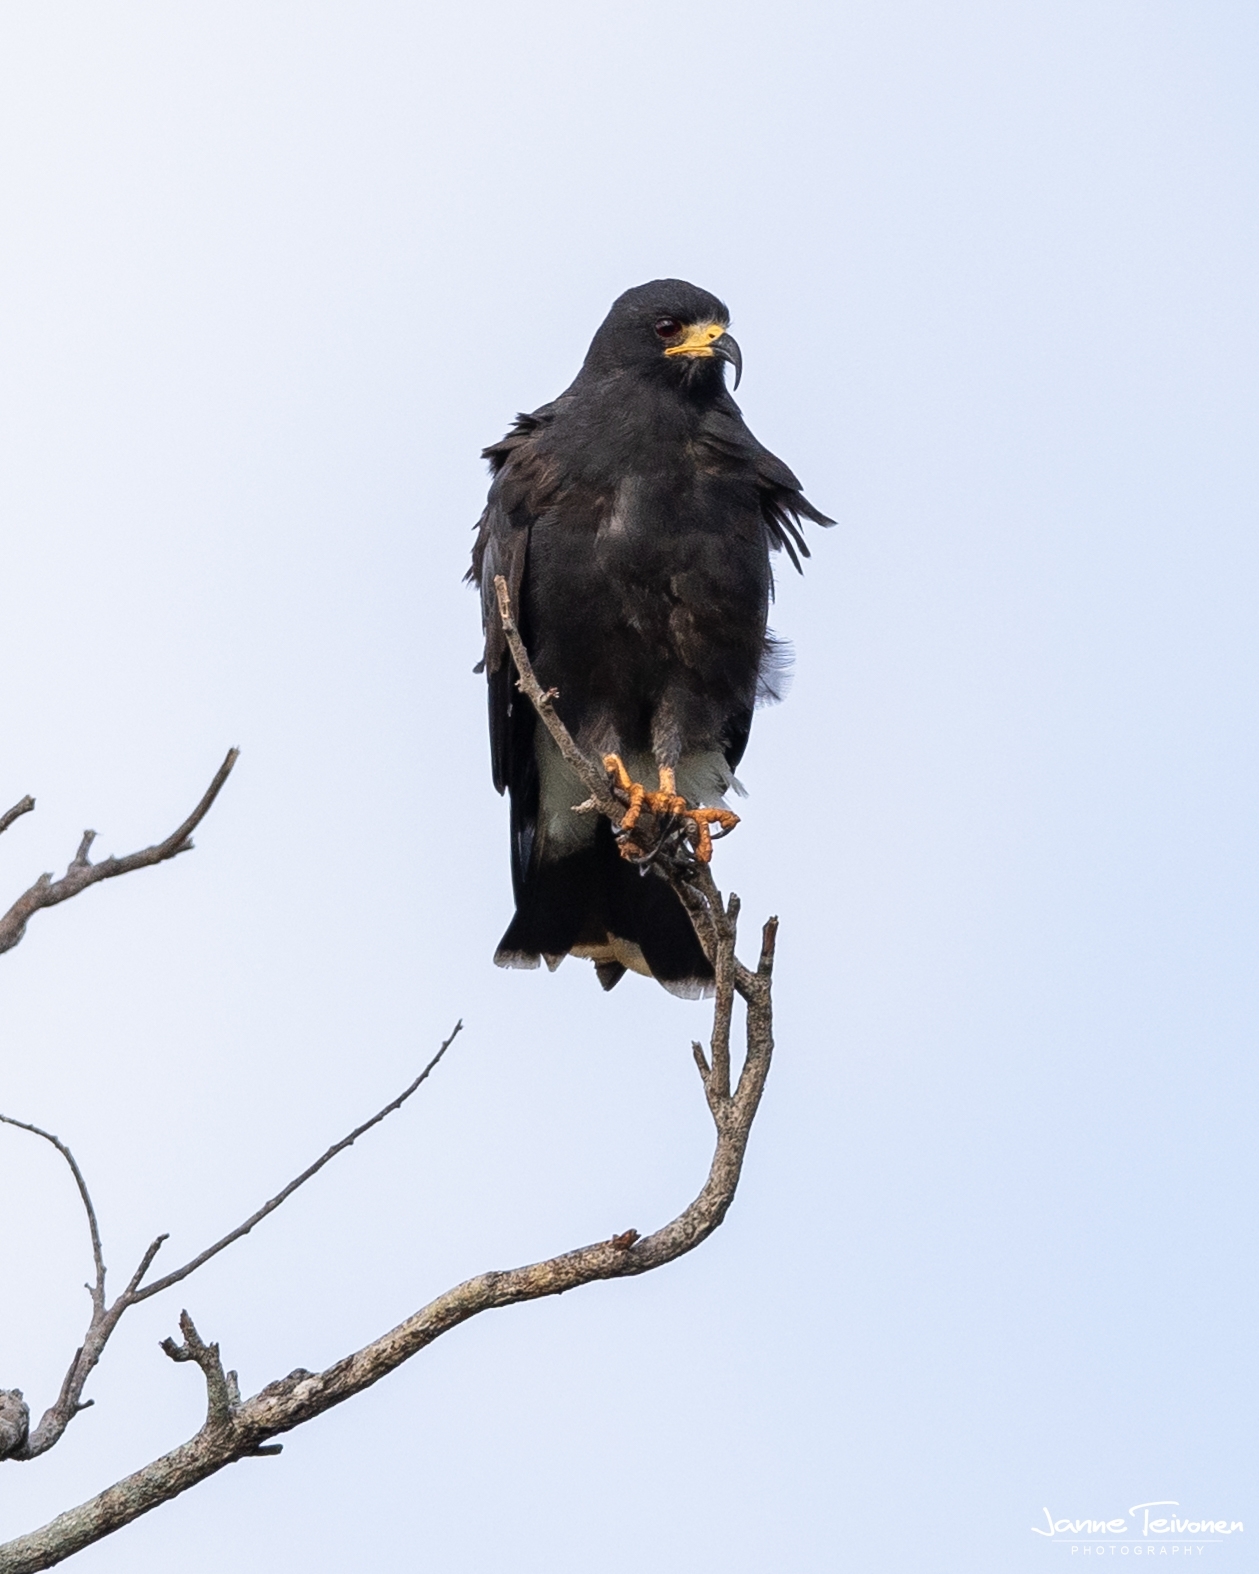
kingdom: Animalia
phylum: Chordata
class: Aves
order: Accipitriformes
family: Accipitridae
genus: Rostrhamus
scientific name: Rostrhamus sociabilis
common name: Snail kite
